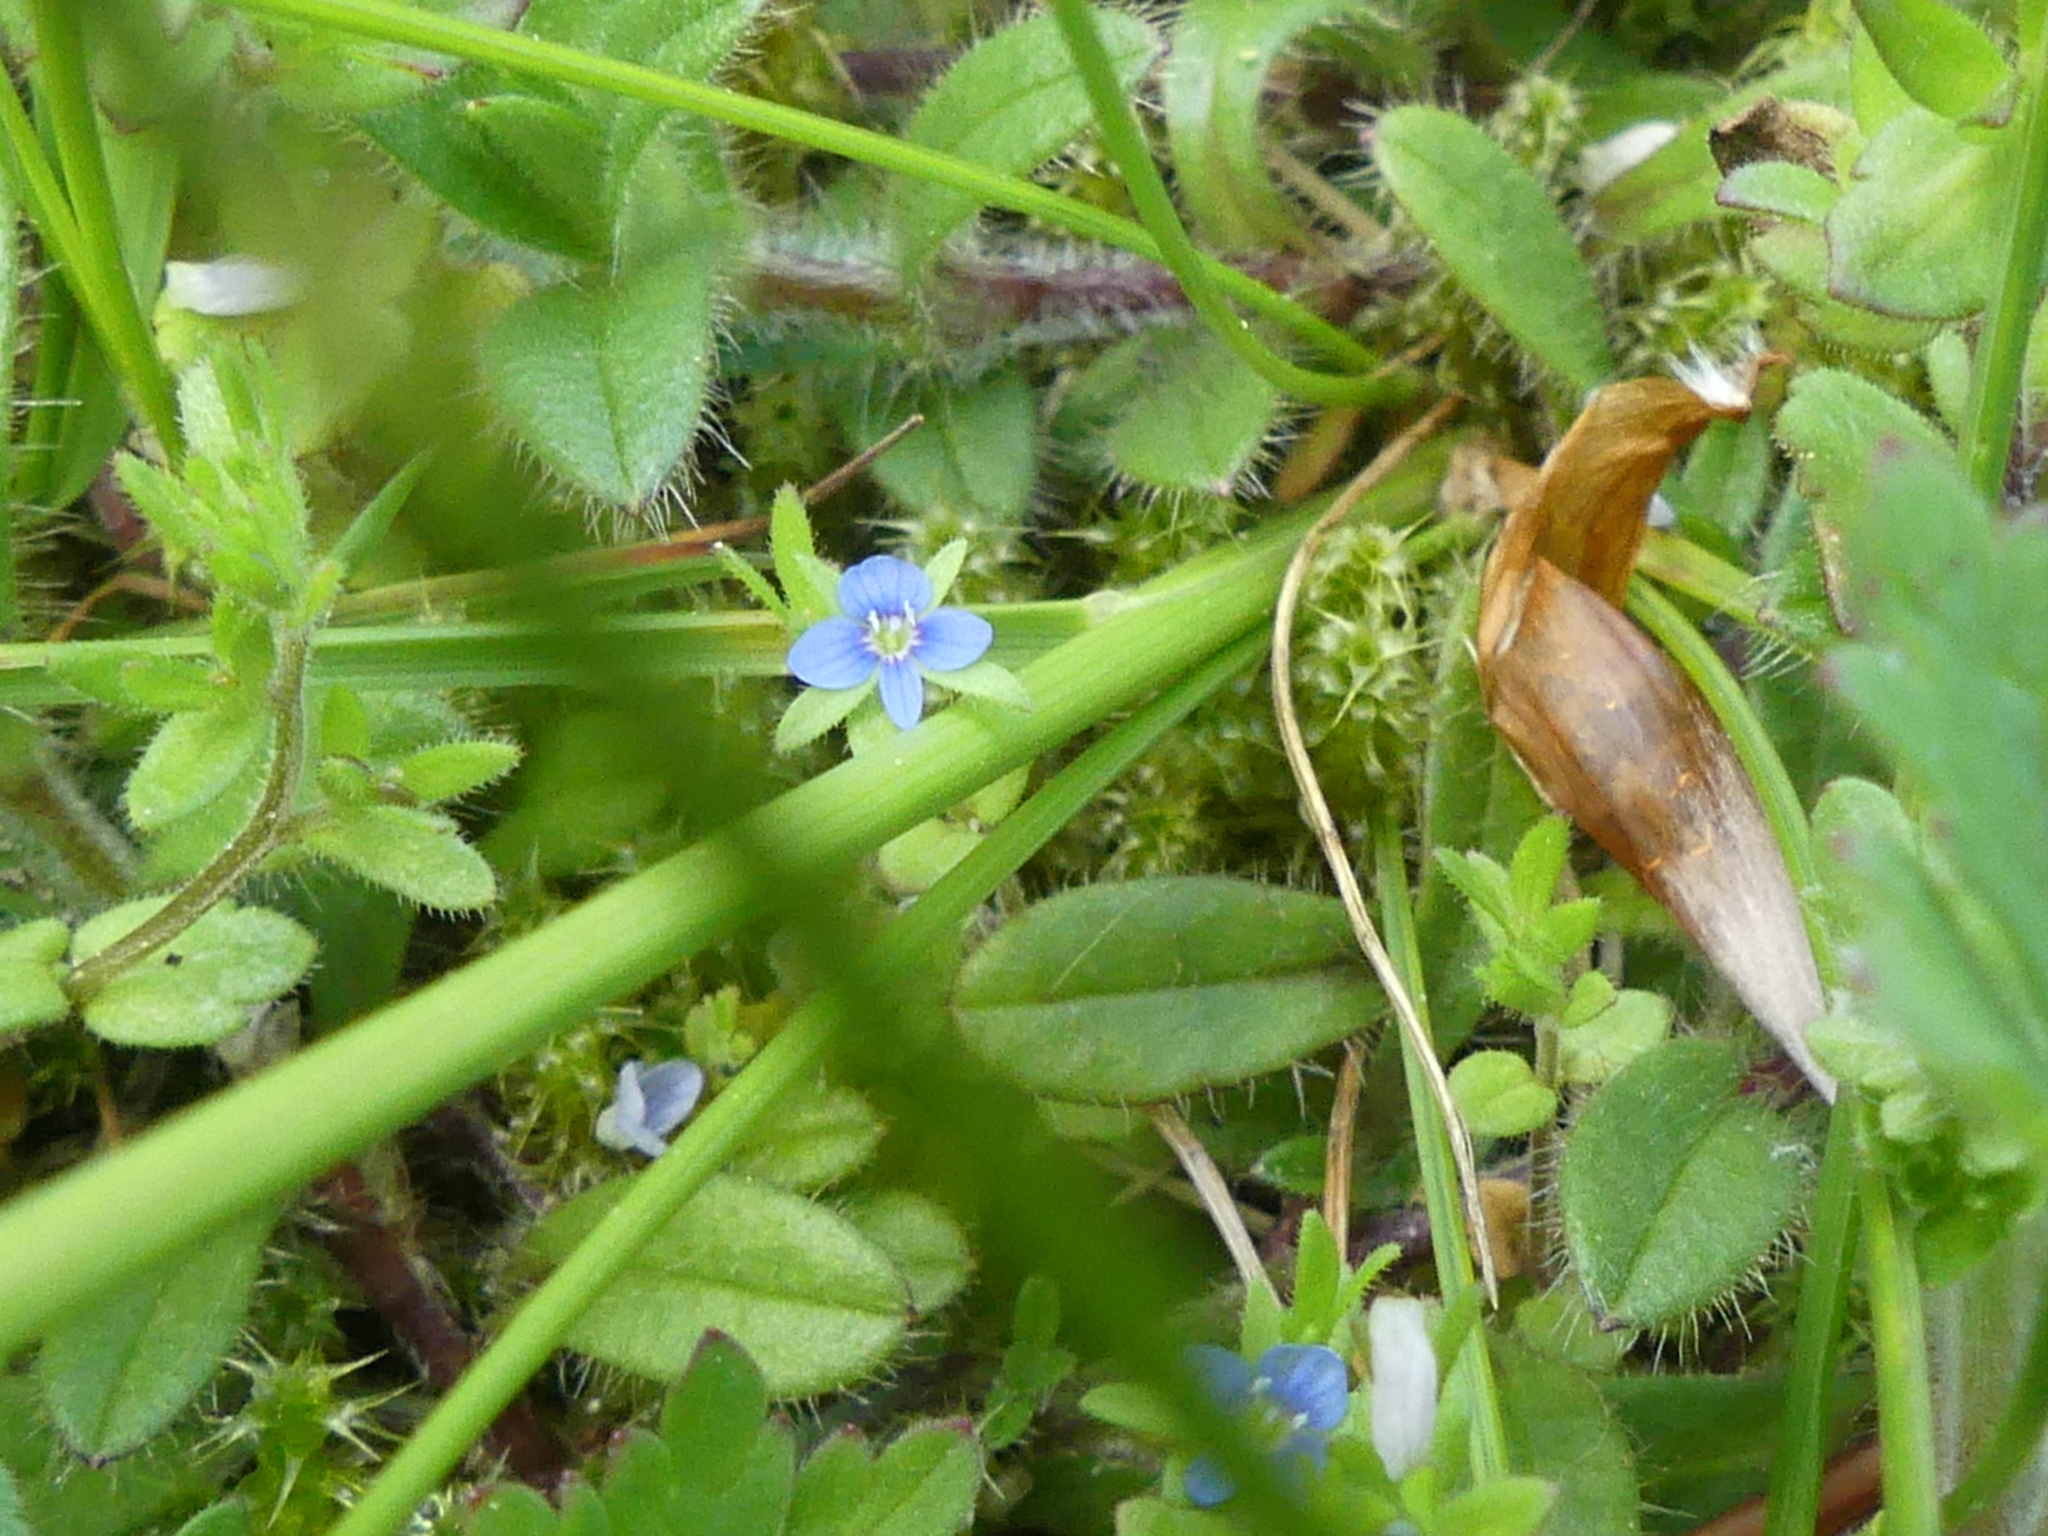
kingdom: Plantae
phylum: Tracheophyta
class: Magnoliopsida
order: Lamiales
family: Plantaginaceae
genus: Veronica
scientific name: Veronica arvensis
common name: Corn speedwell
